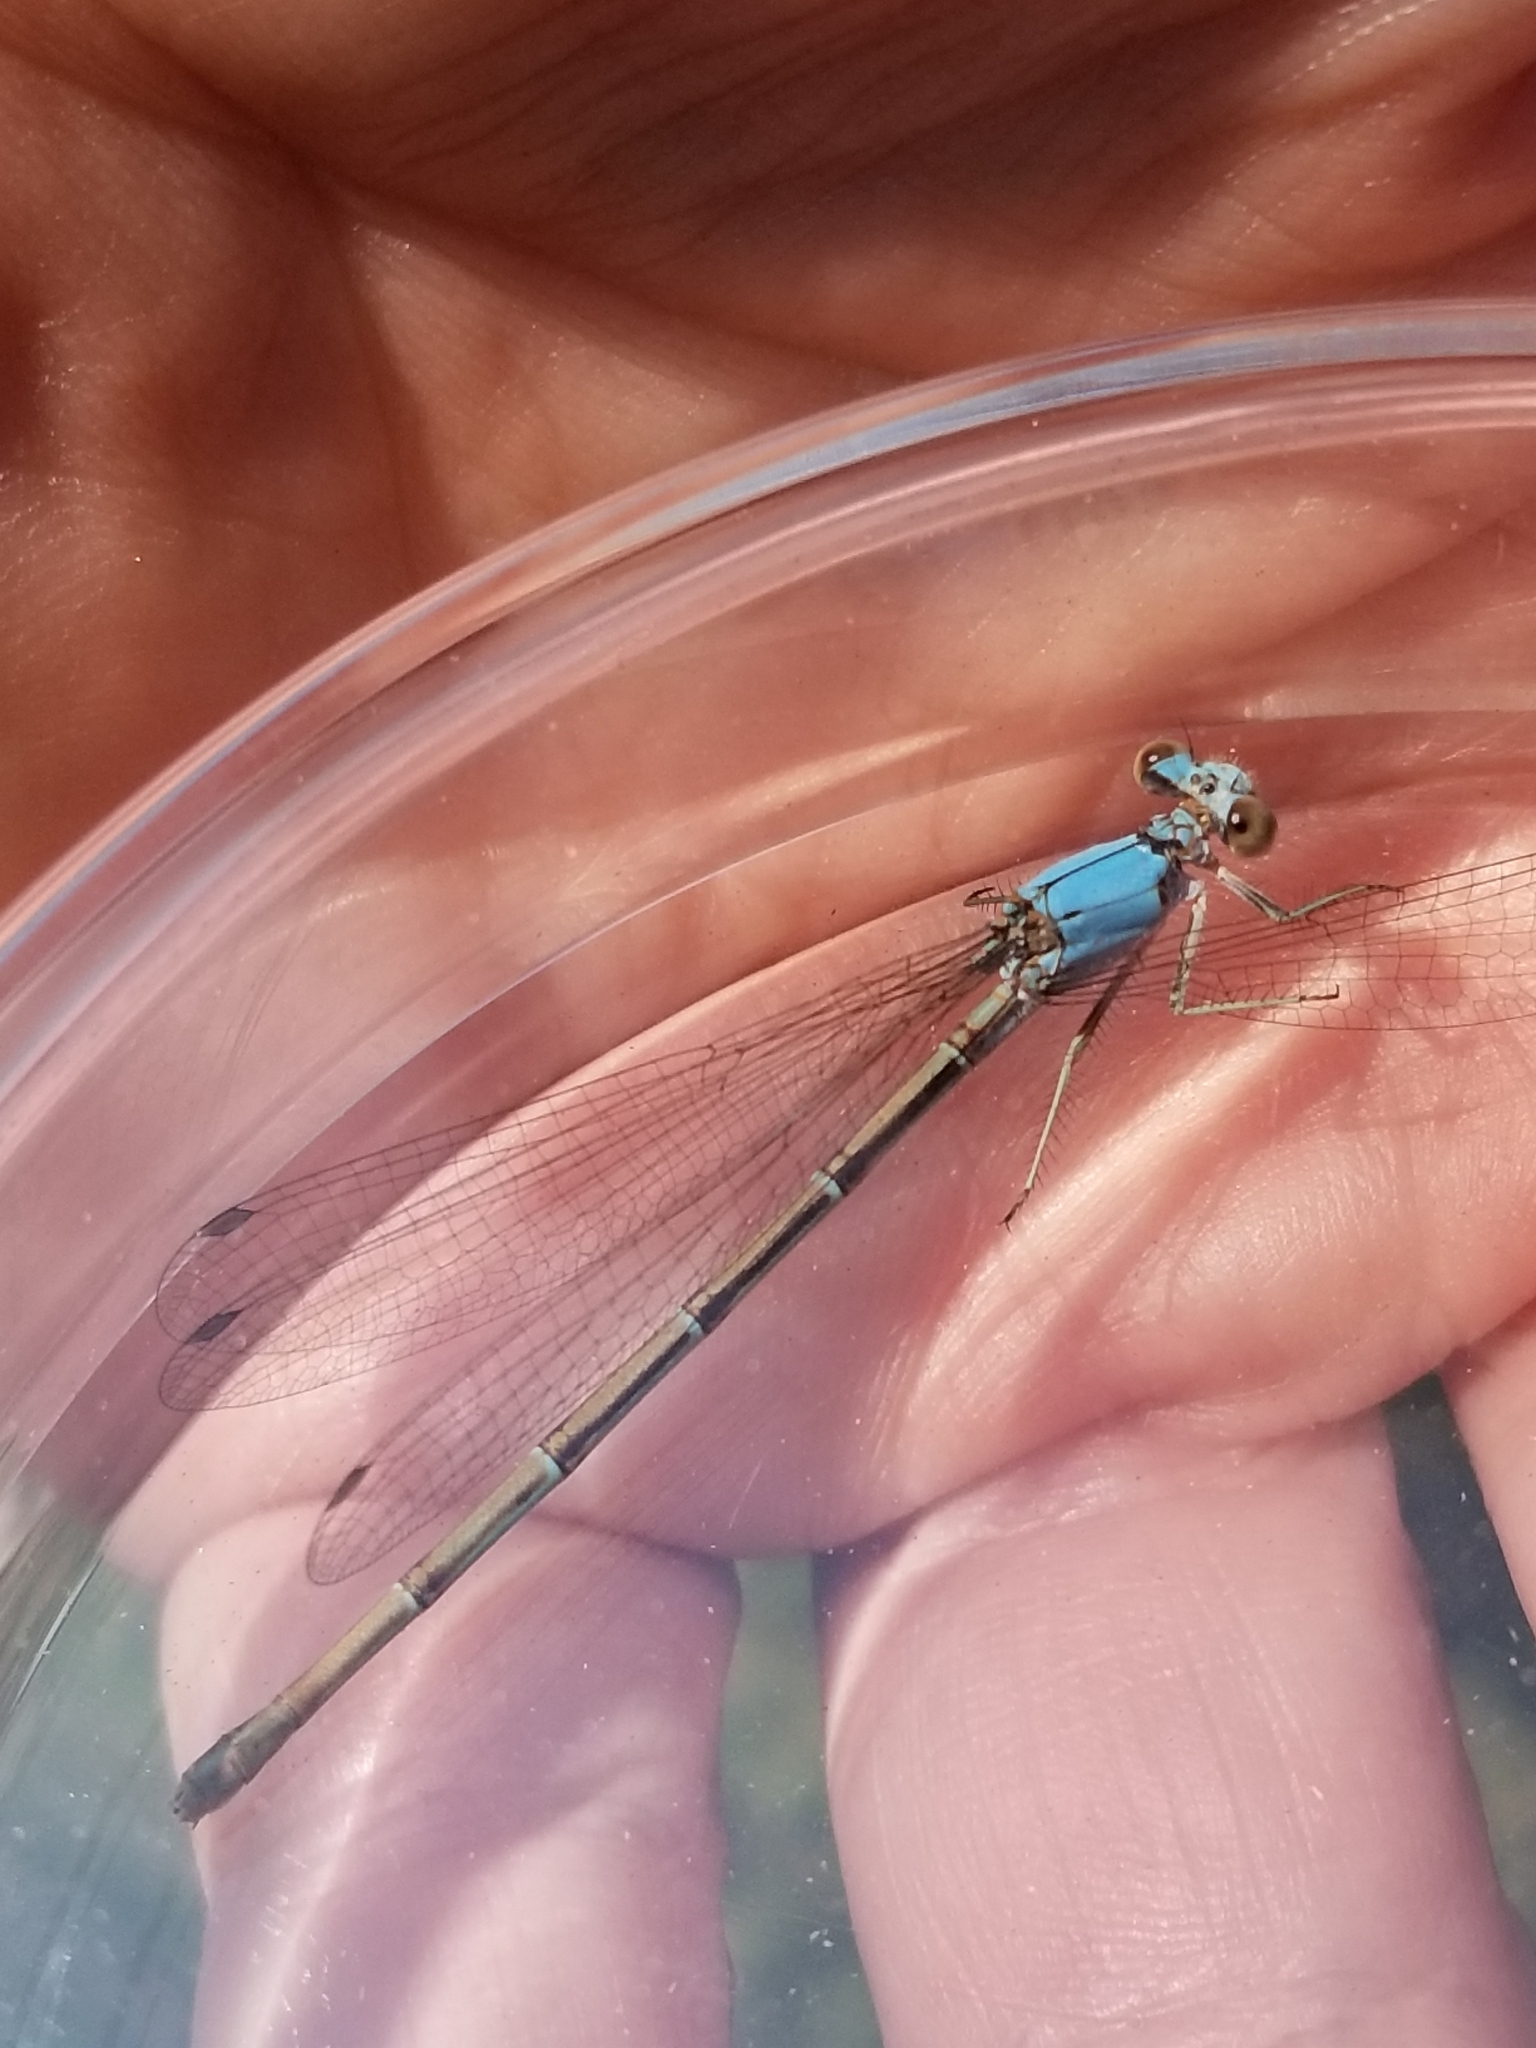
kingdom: Animalia
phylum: Arthropoda
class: Insecta
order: Odonata
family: Coenagrionidae
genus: Argia
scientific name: Argia apicalis
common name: Blue-fronted dancer
